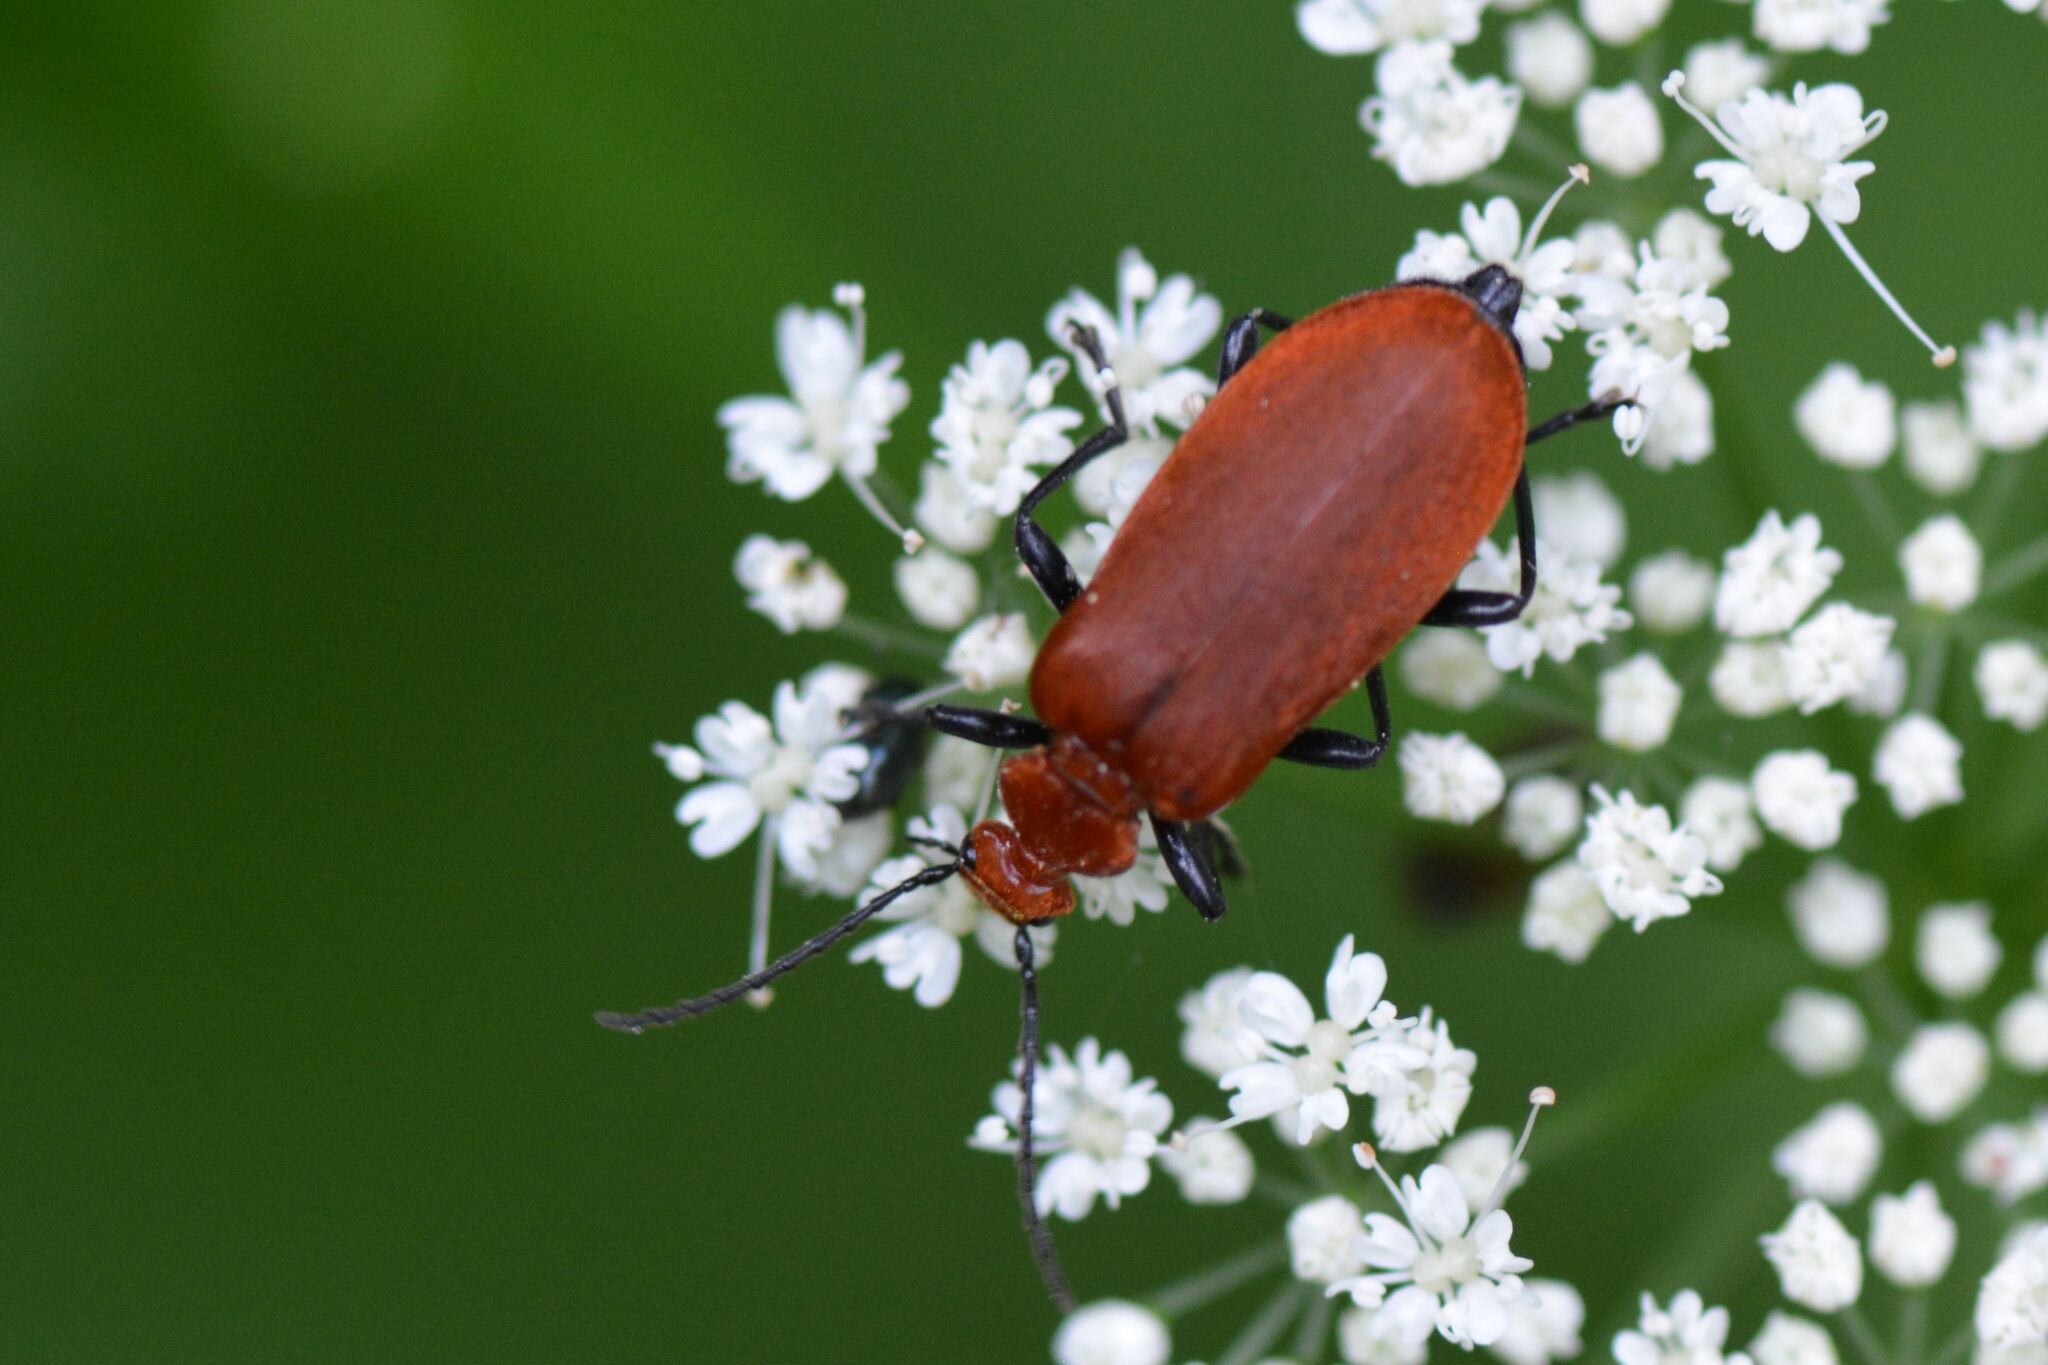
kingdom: Animalia
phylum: Arthropoda
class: Insecta
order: Coleoptera
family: Pyrochroidae
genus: Pyrochroa
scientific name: Pyrochroa serraticornis
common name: Red-headed cardinal beetle
